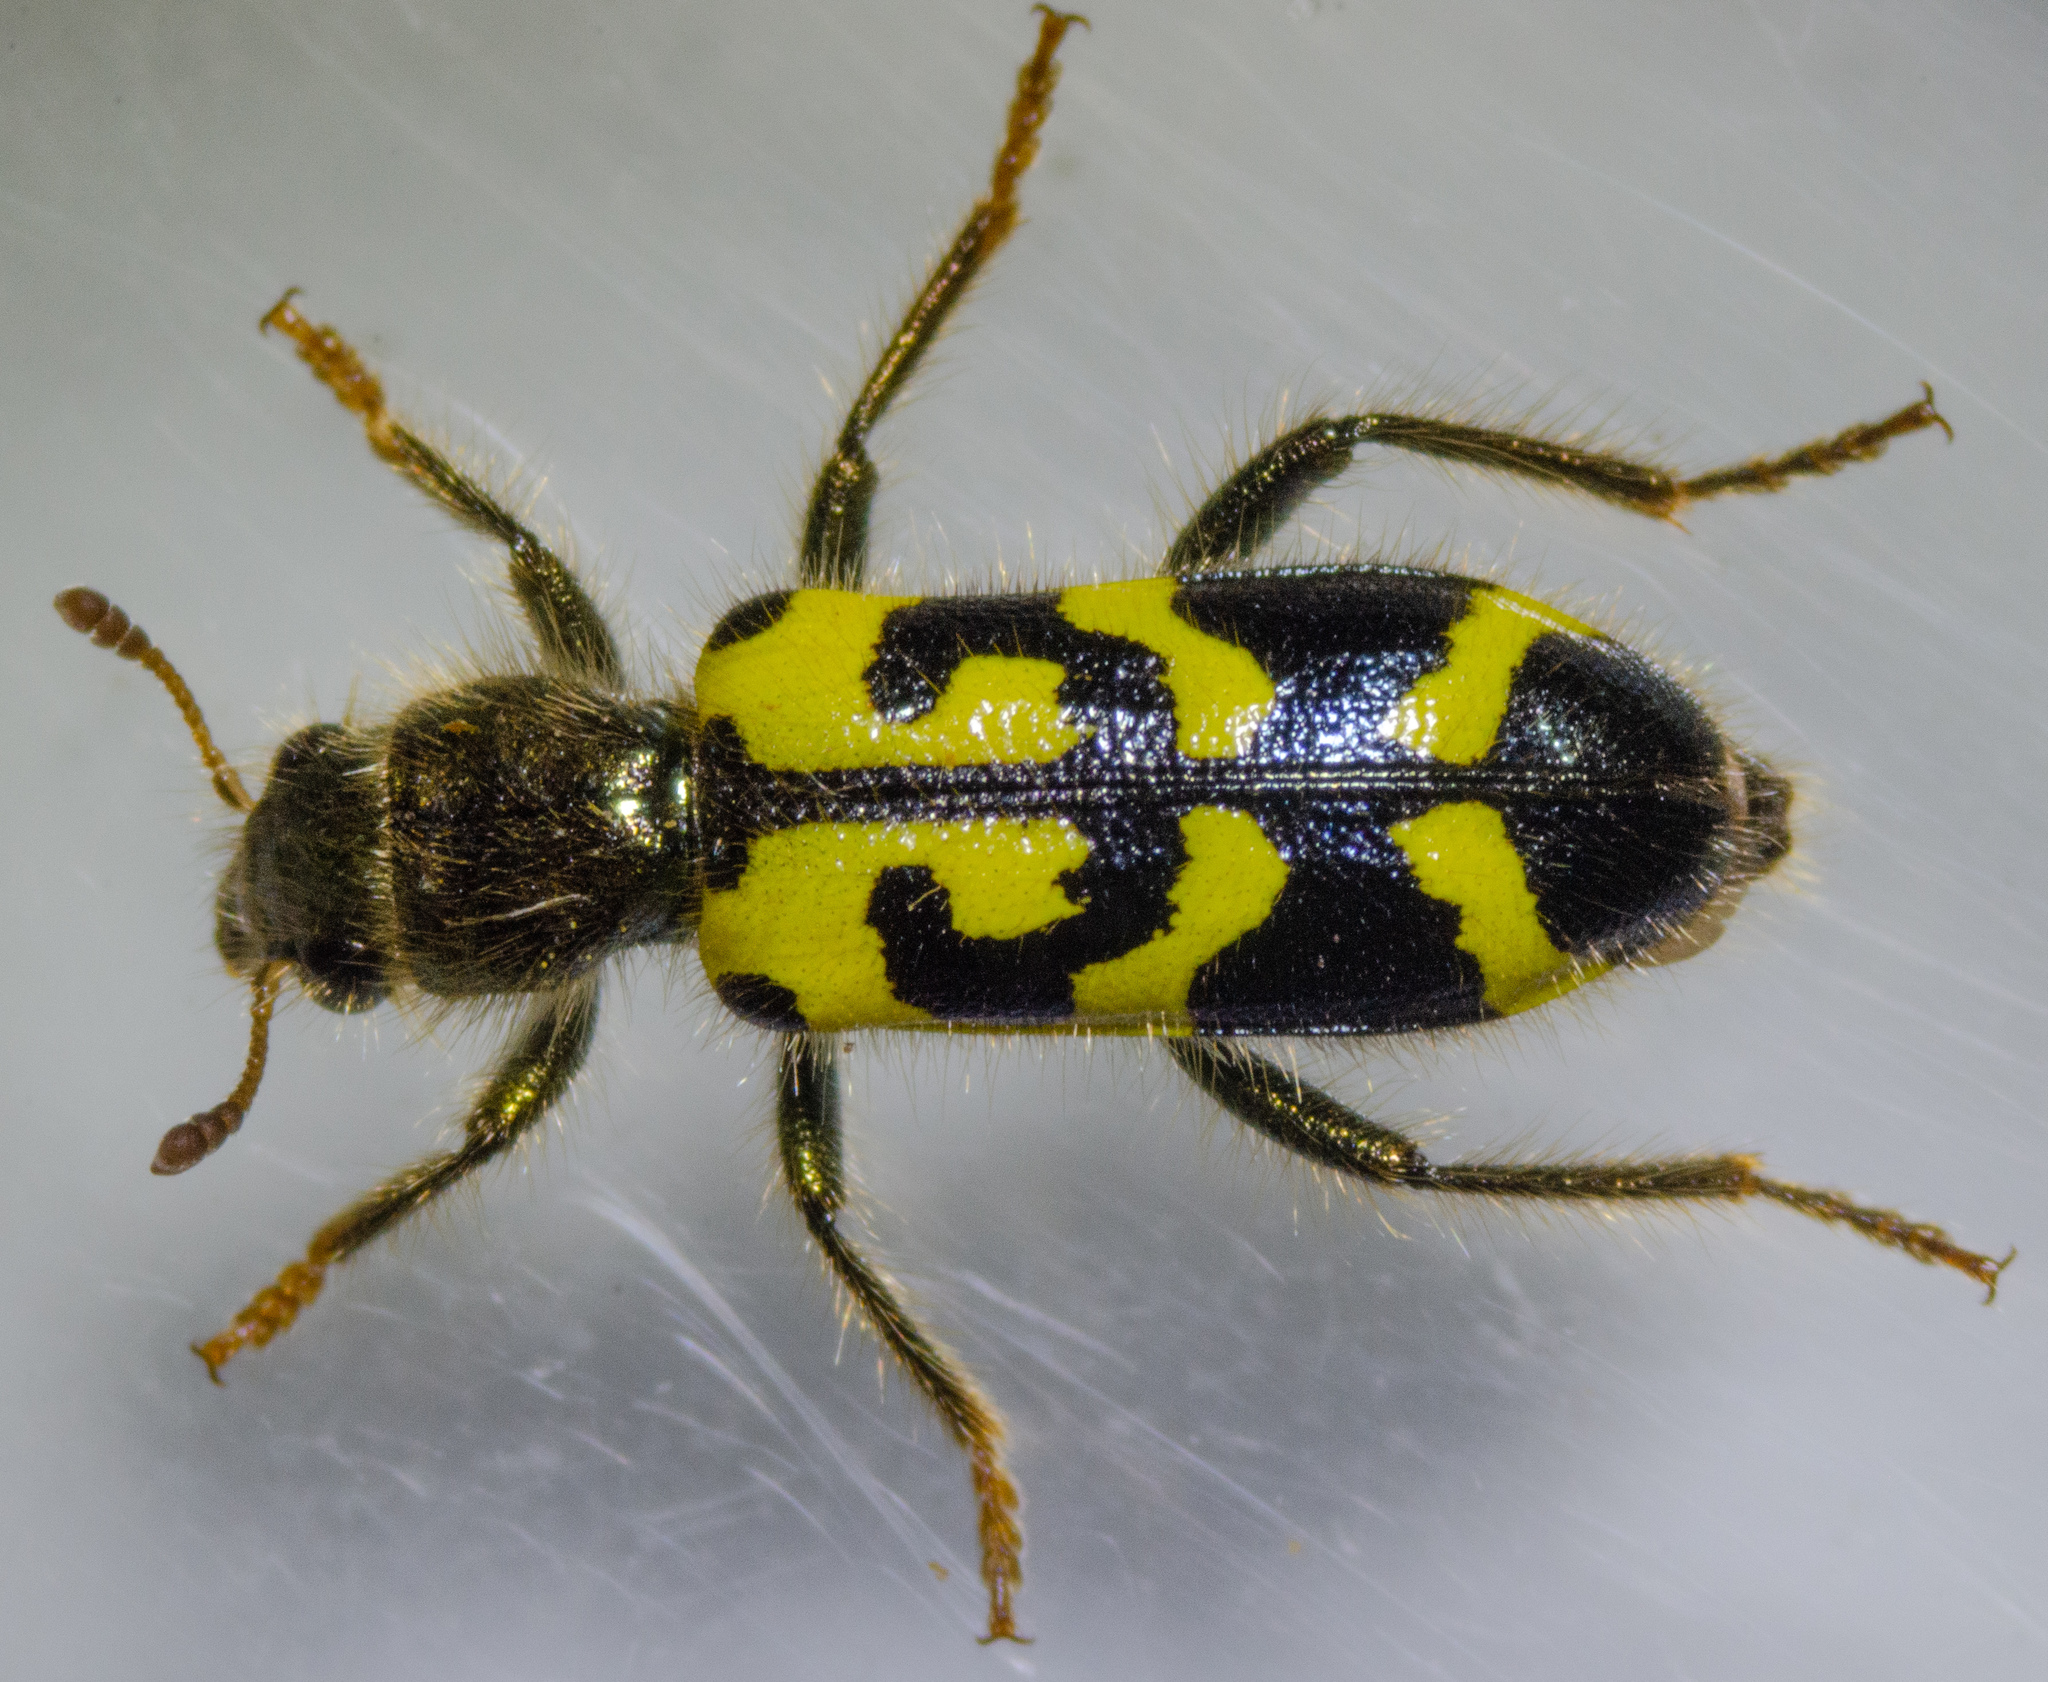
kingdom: Animalia
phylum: Arthropoda
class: Insecta
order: Coleoptera
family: Cleridae
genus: Trichodes
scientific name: Trichodes ornatus
